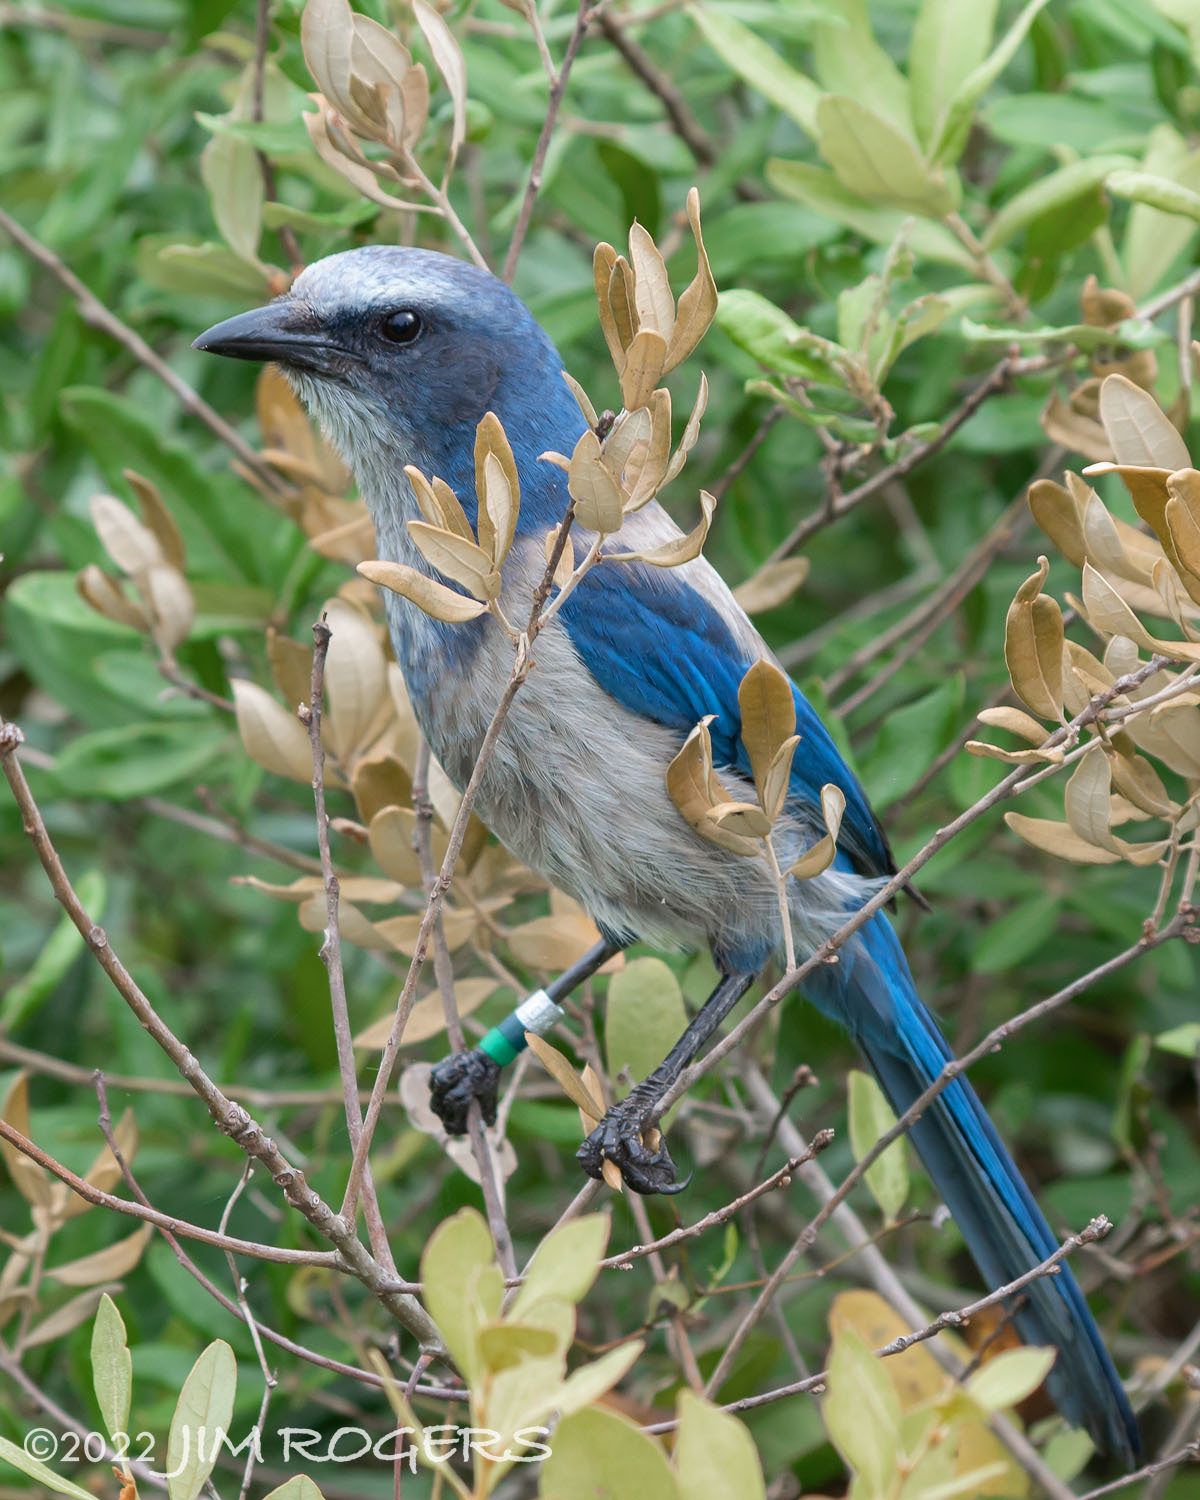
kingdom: Animalia
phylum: Chordata
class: Aves
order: Passeriformes
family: Corvidae
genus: Aphelocoma
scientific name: Aphelocoma coerulescens
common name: Florida scrub jay
